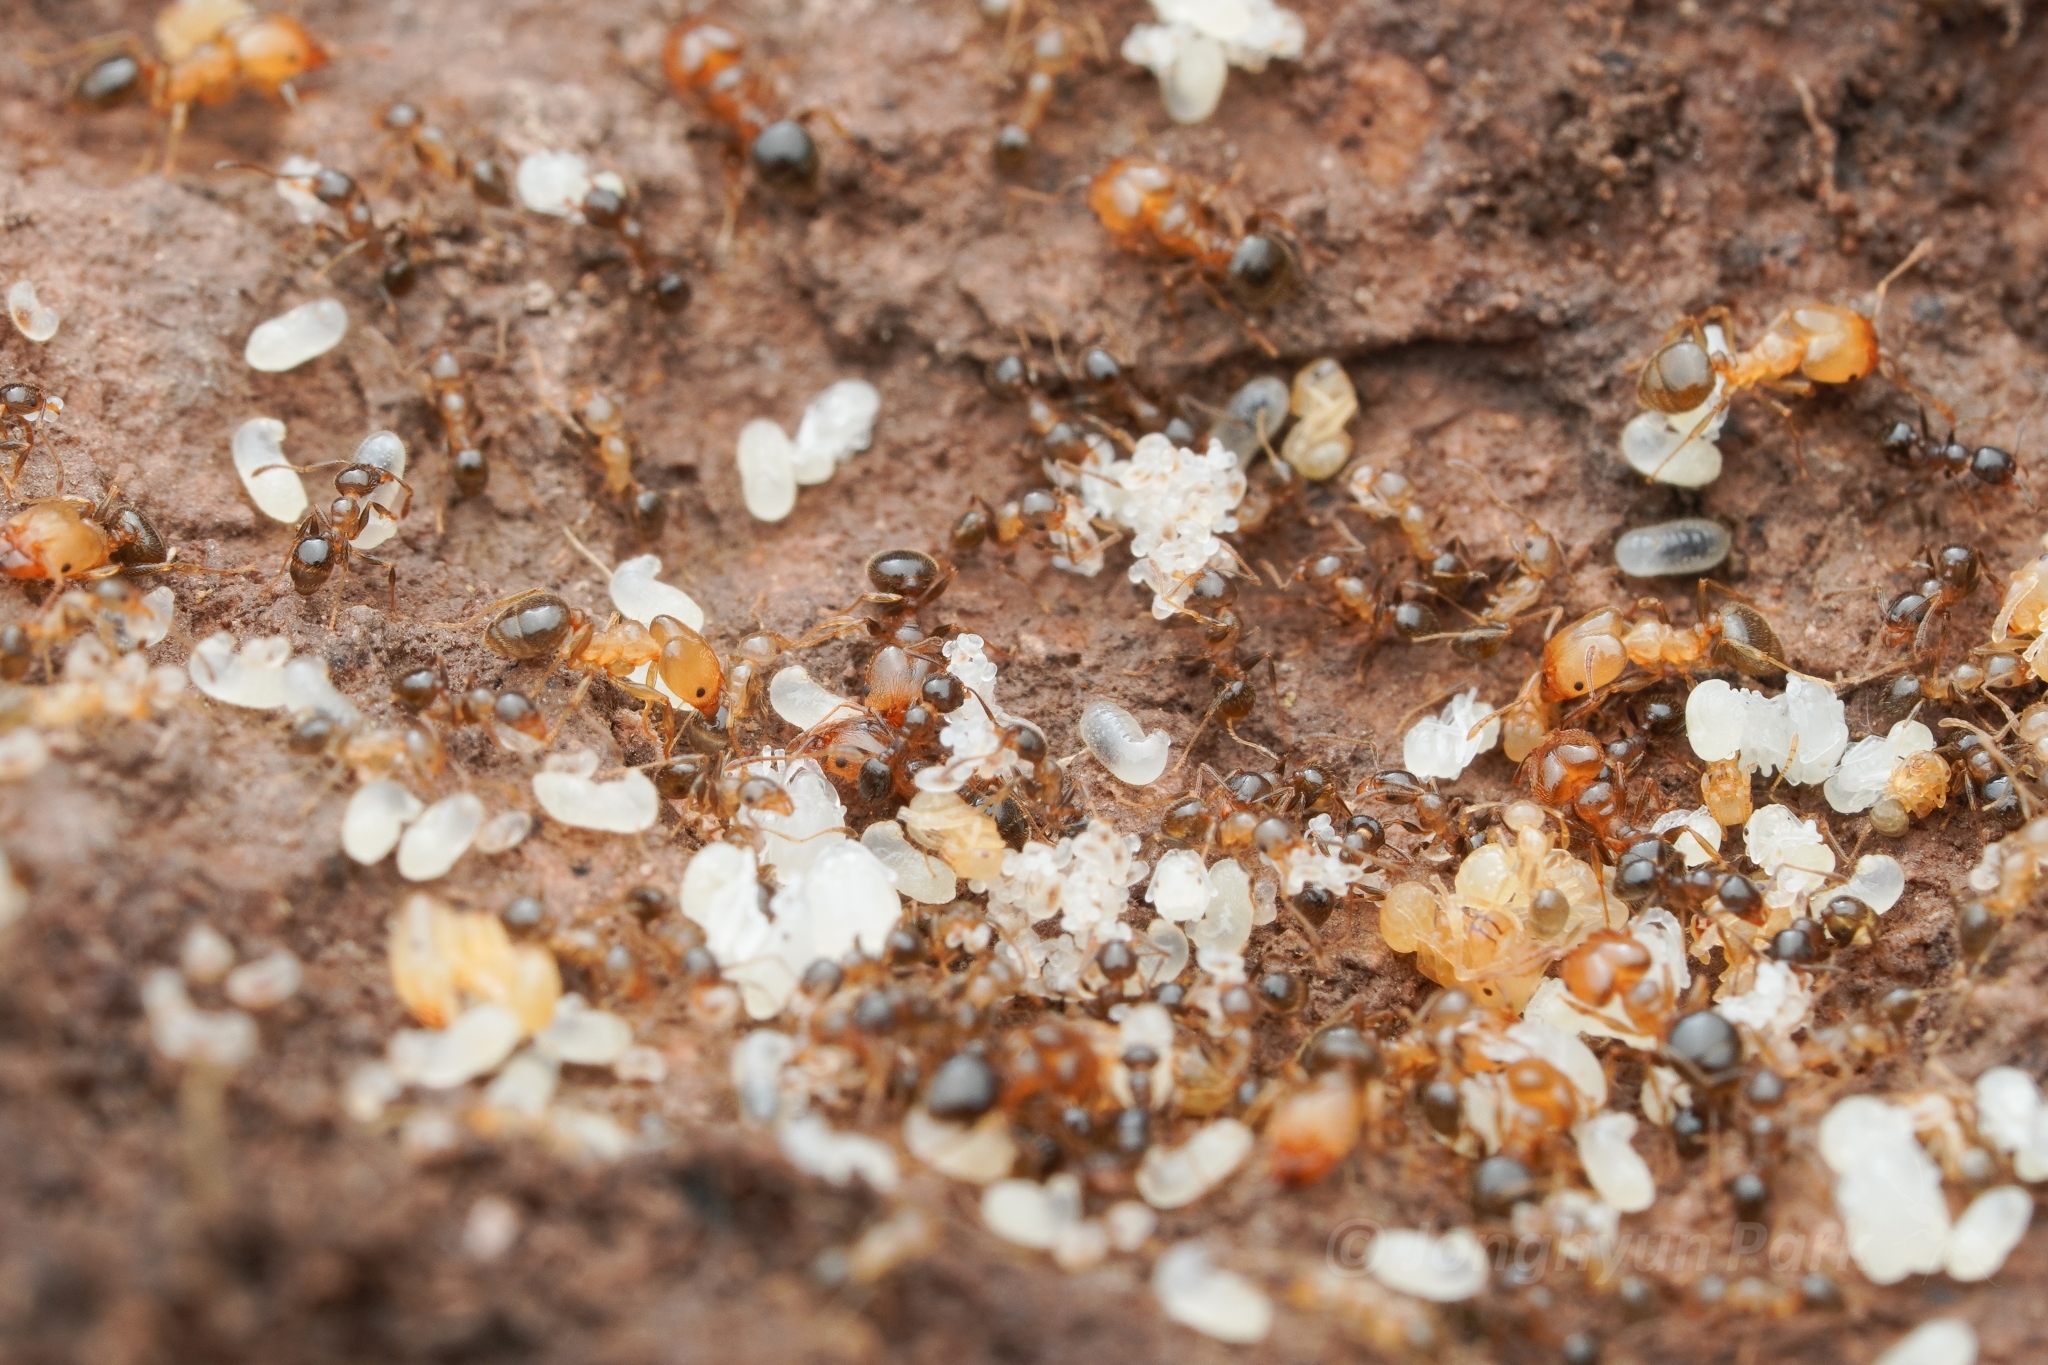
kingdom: Animalia
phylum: Arthropoda
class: Insecta
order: Hymenoptera
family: Formicidae
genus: Pheidole
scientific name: Pheidole diversipilosa
